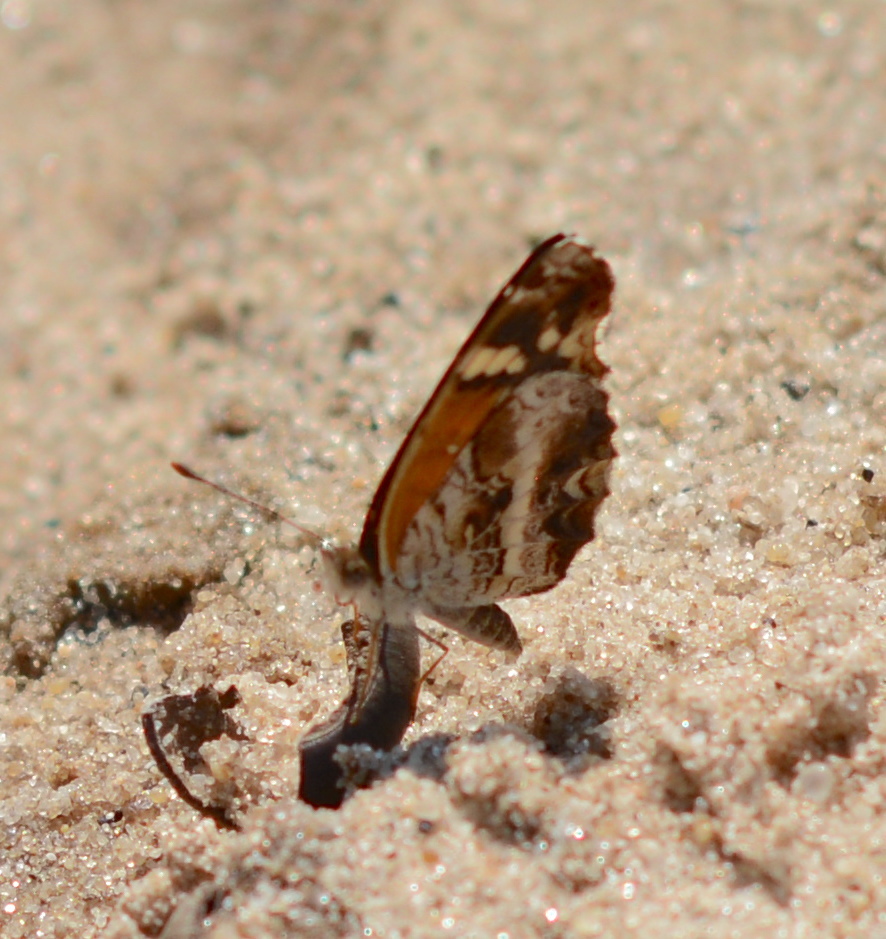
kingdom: Animalia
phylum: Arthropoda
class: Insecta
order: Lepidoptera
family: Nymphalidae
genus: Anthanassa
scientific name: Anthanassa texana
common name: Texan crescent
